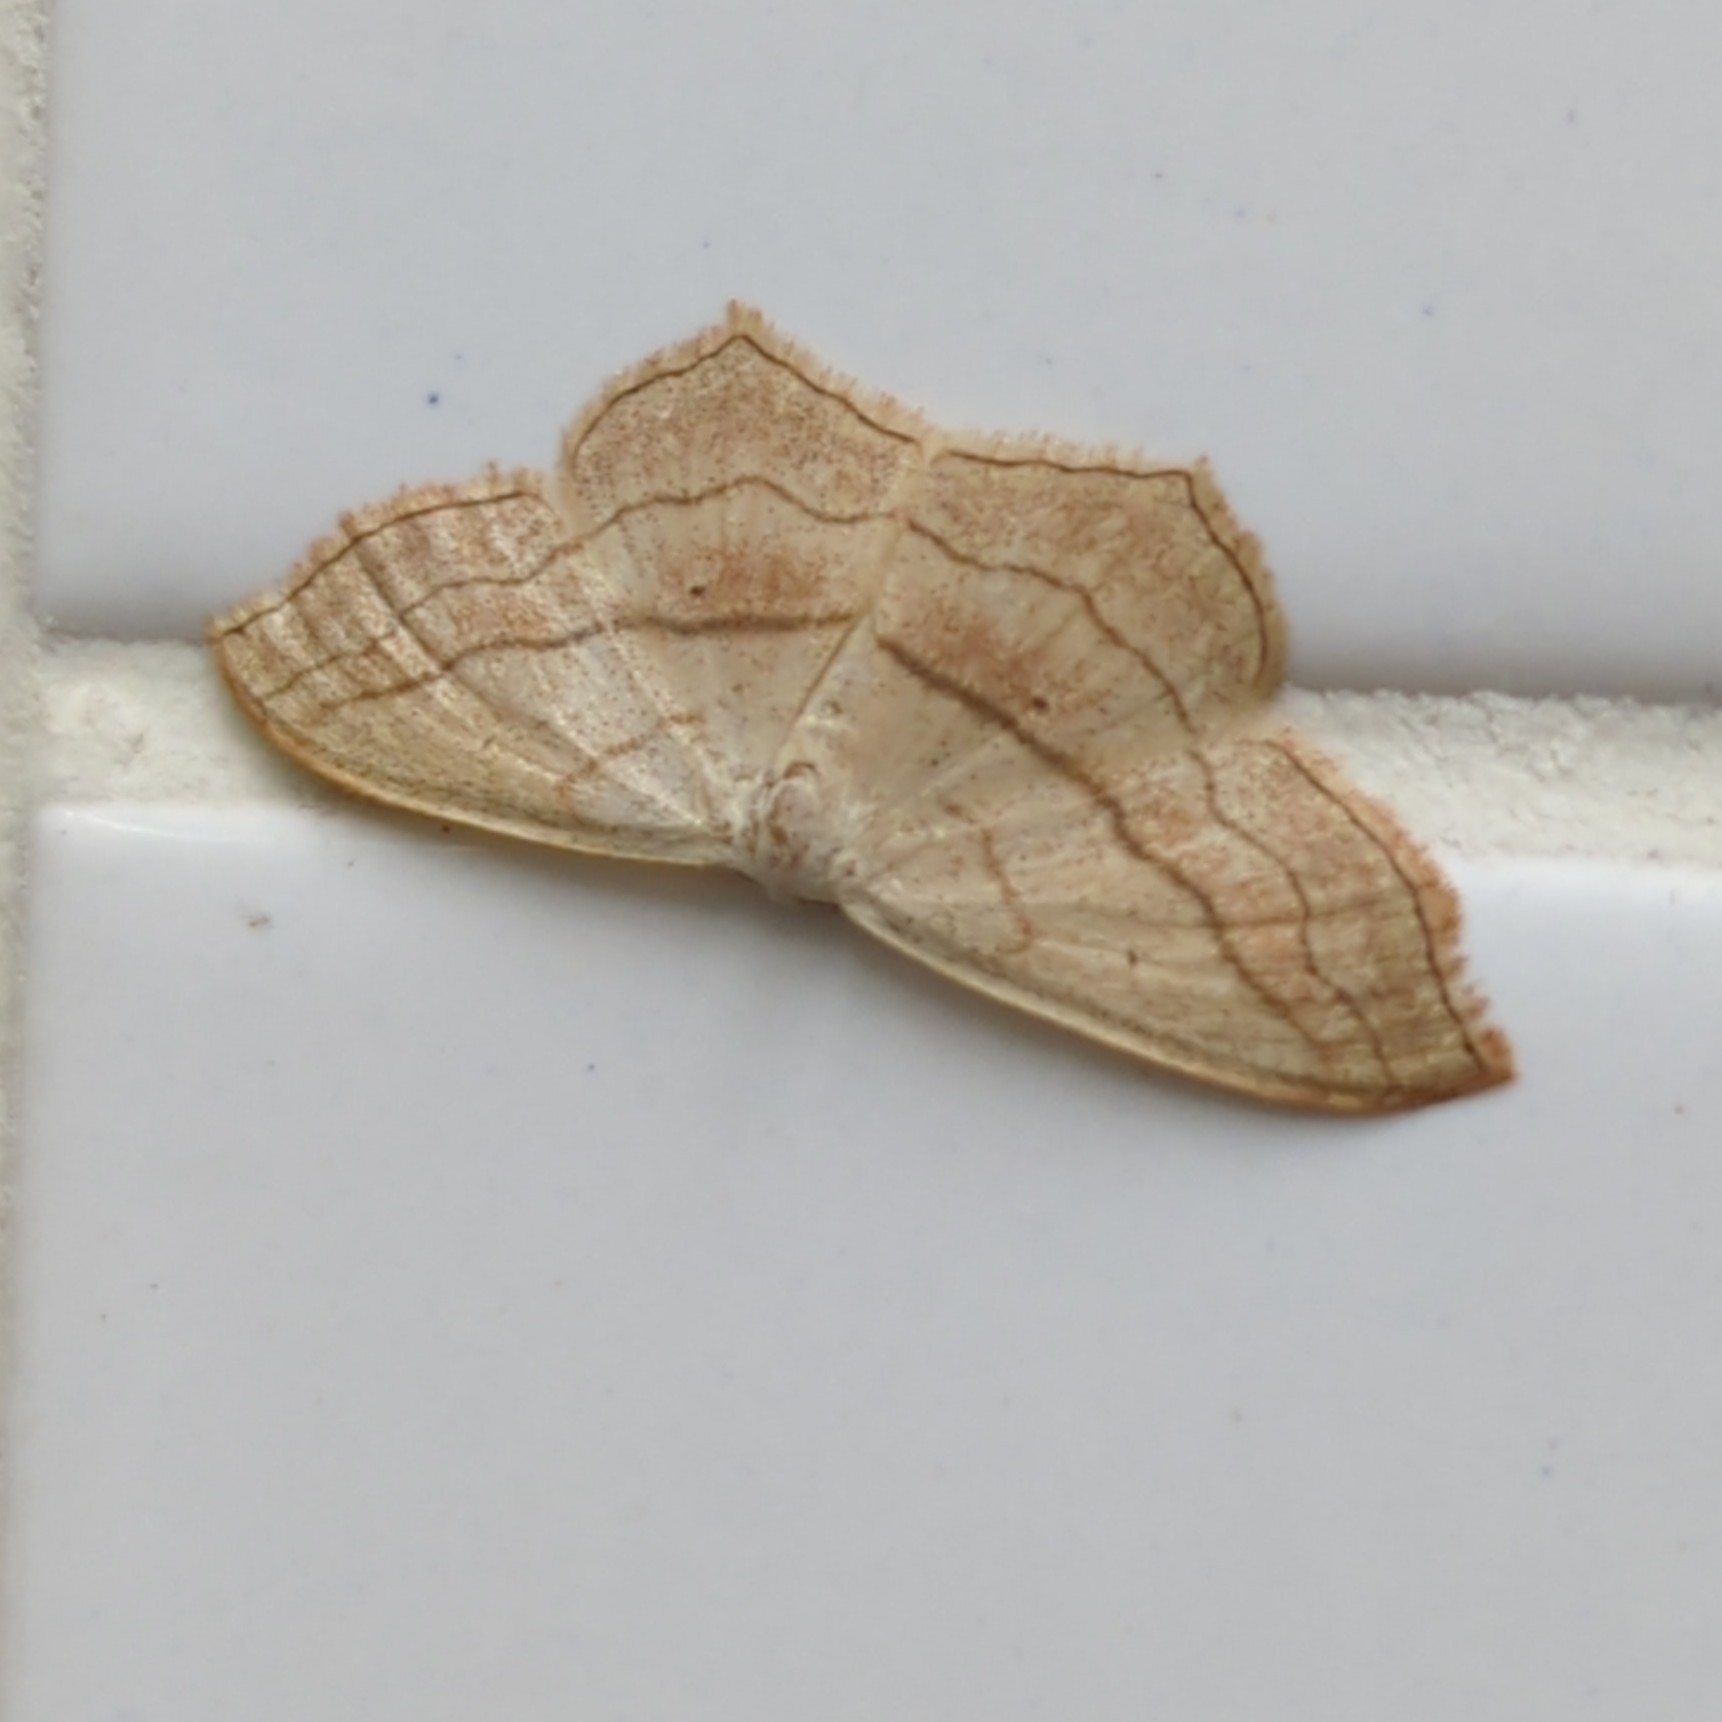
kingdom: Animalia
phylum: Arthropoda
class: Insecta
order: Lepidoptera
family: Geometridae
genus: Scopula
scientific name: Scopula imitaria
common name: Small blood-vein
